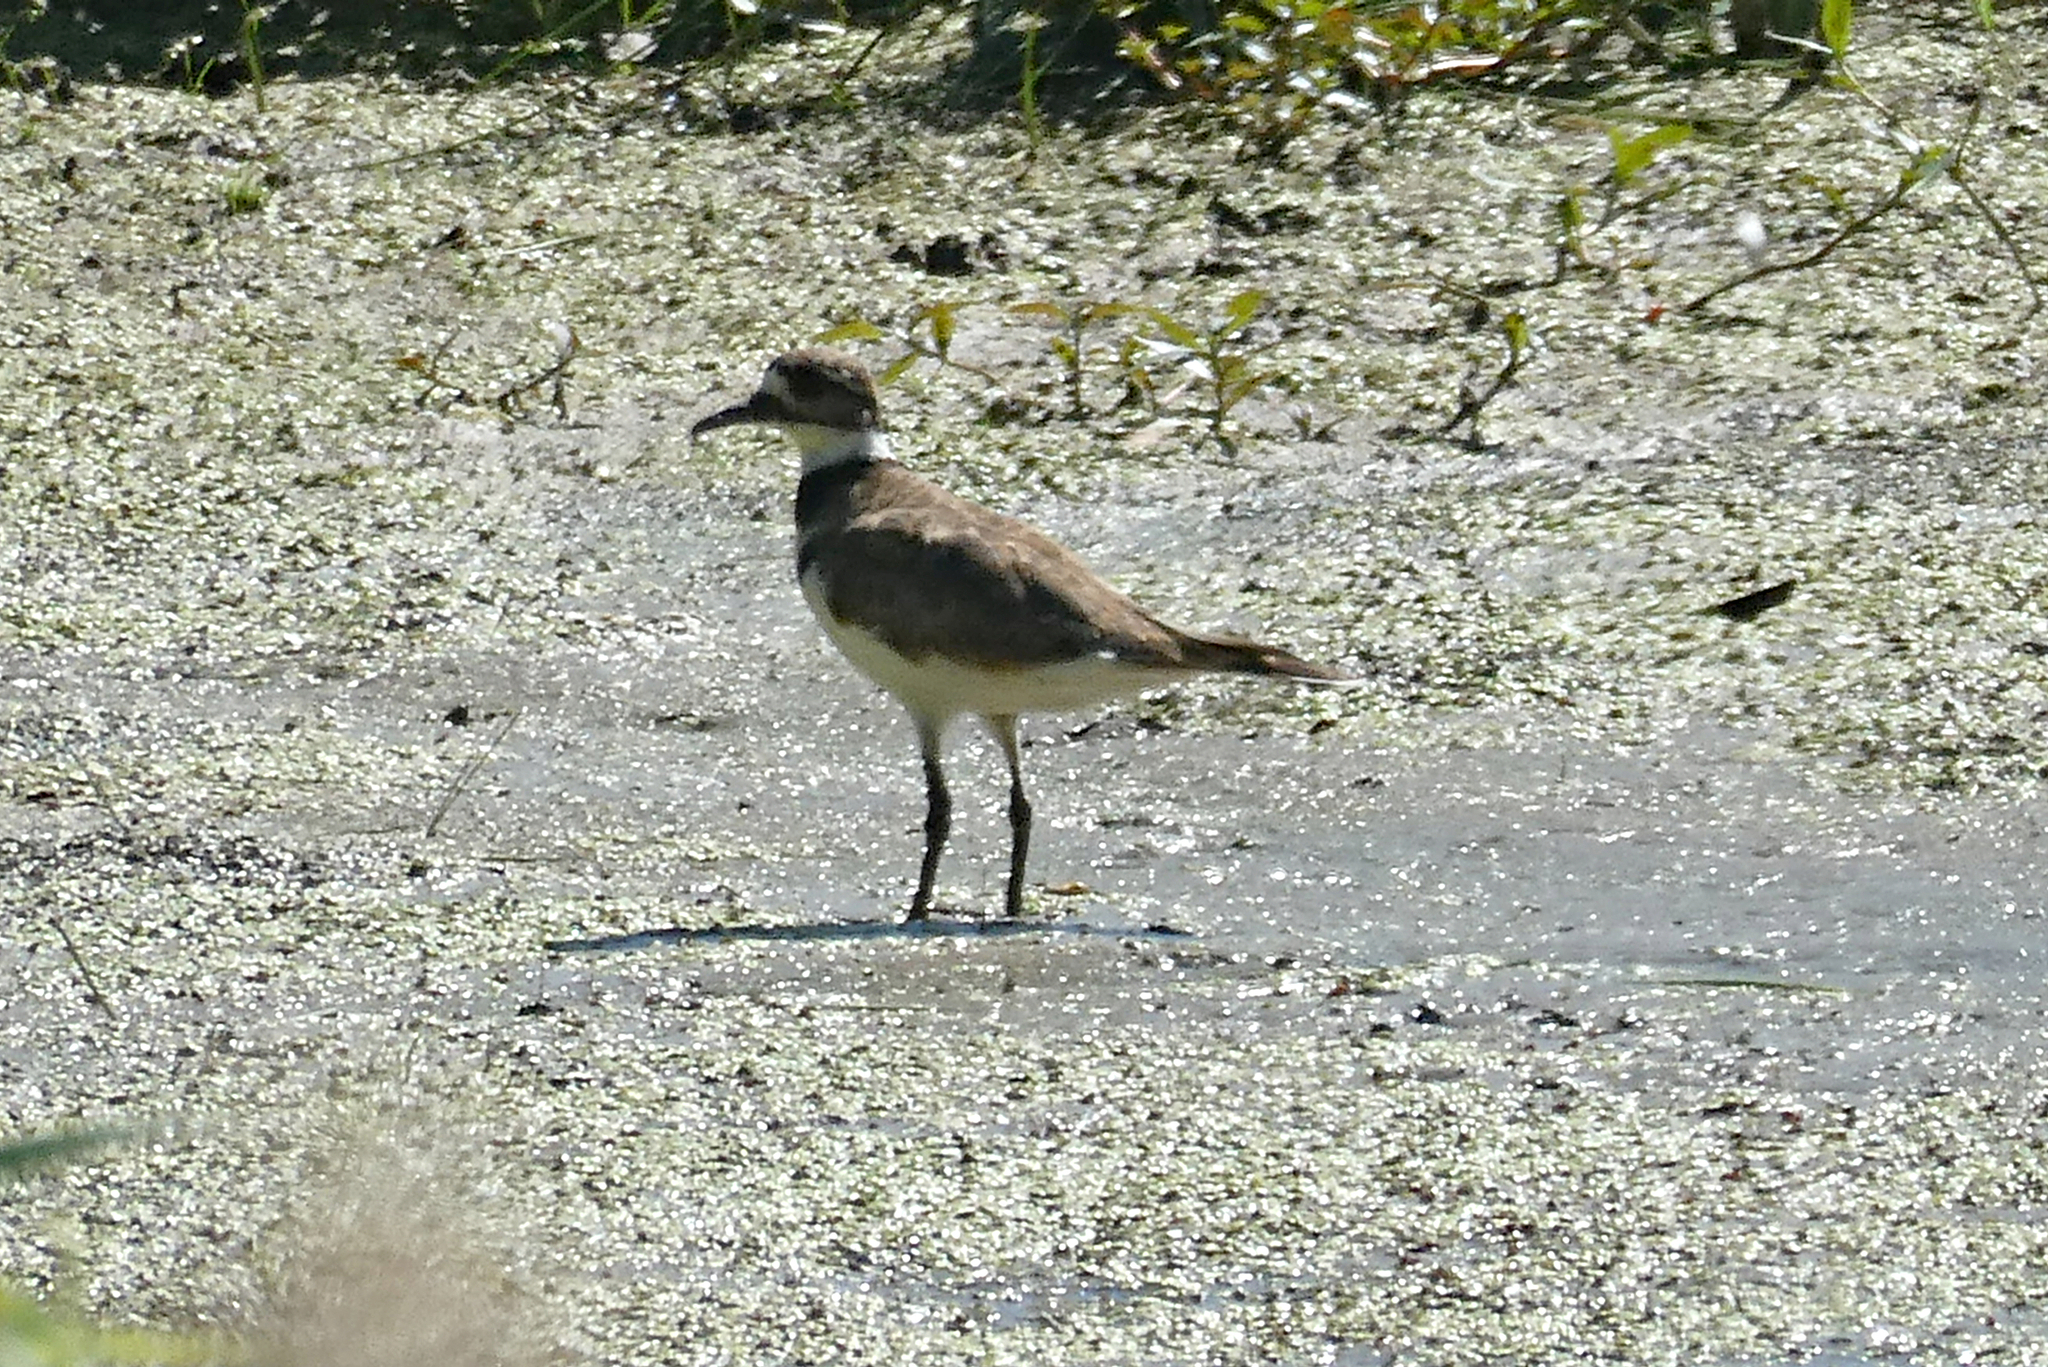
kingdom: Animalia
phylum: Chordata
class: Aves
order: Charadriiformes
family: Charadriidae
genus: Charadrius
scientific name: Charadrius vociferus
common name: Killdeer
